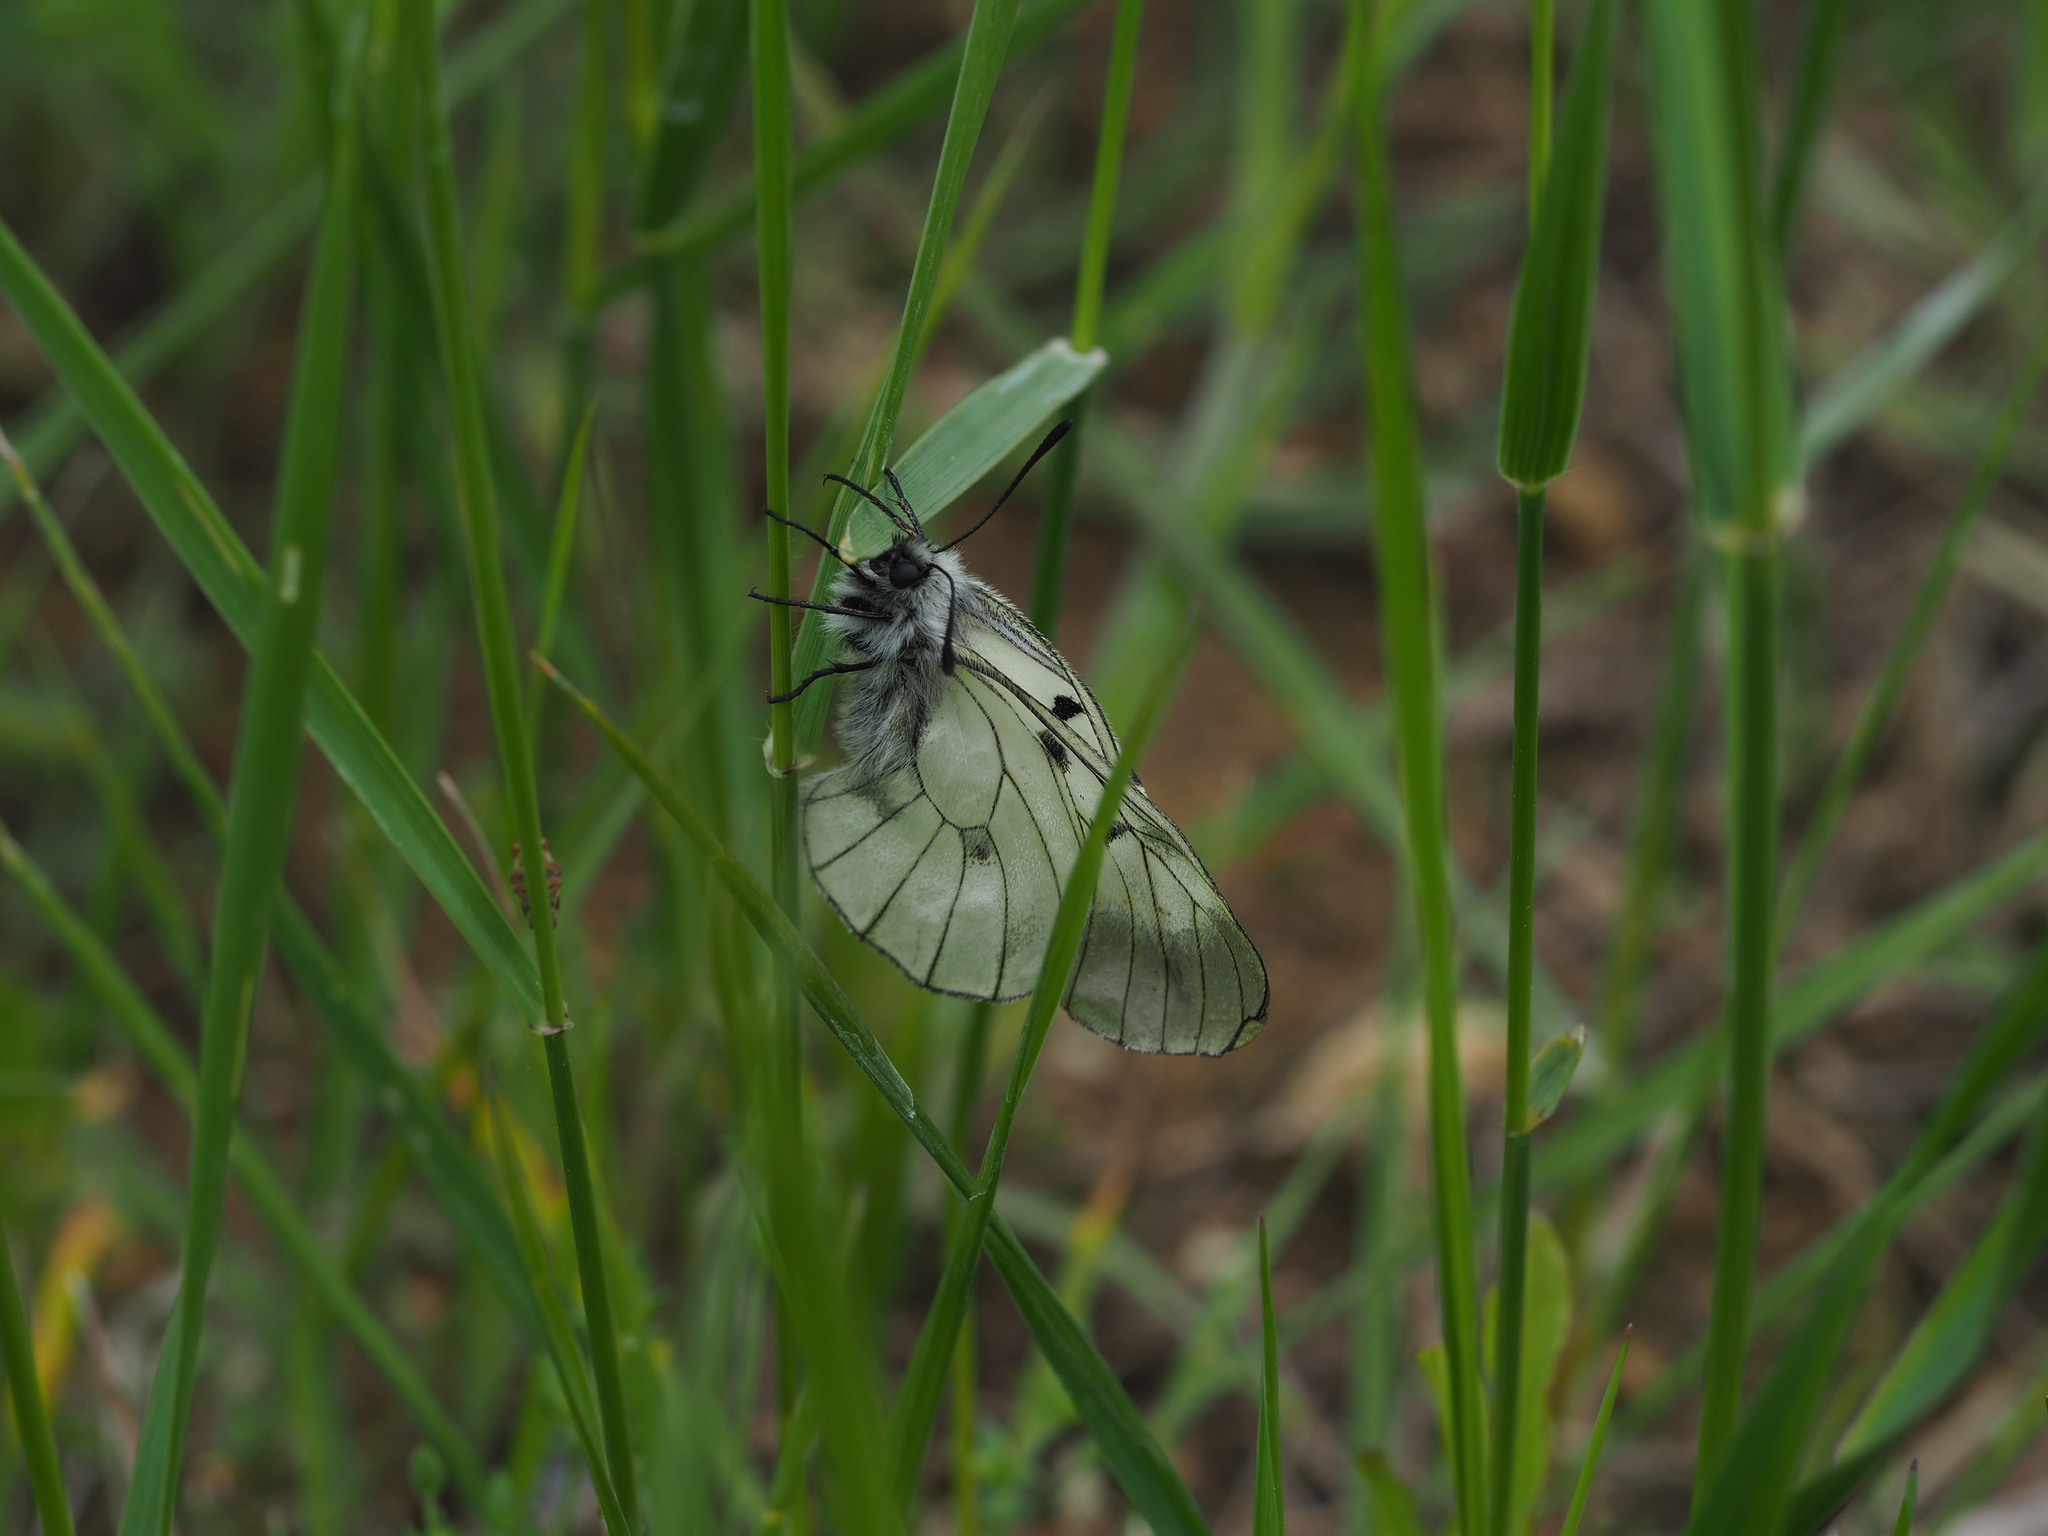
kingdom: Animalia
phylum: Arthropoda
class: Insecta
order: Lepidoptera
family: Papilionidae
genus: Parnassius
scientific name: Parnassius mnemosyne
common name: Clouded apollo
